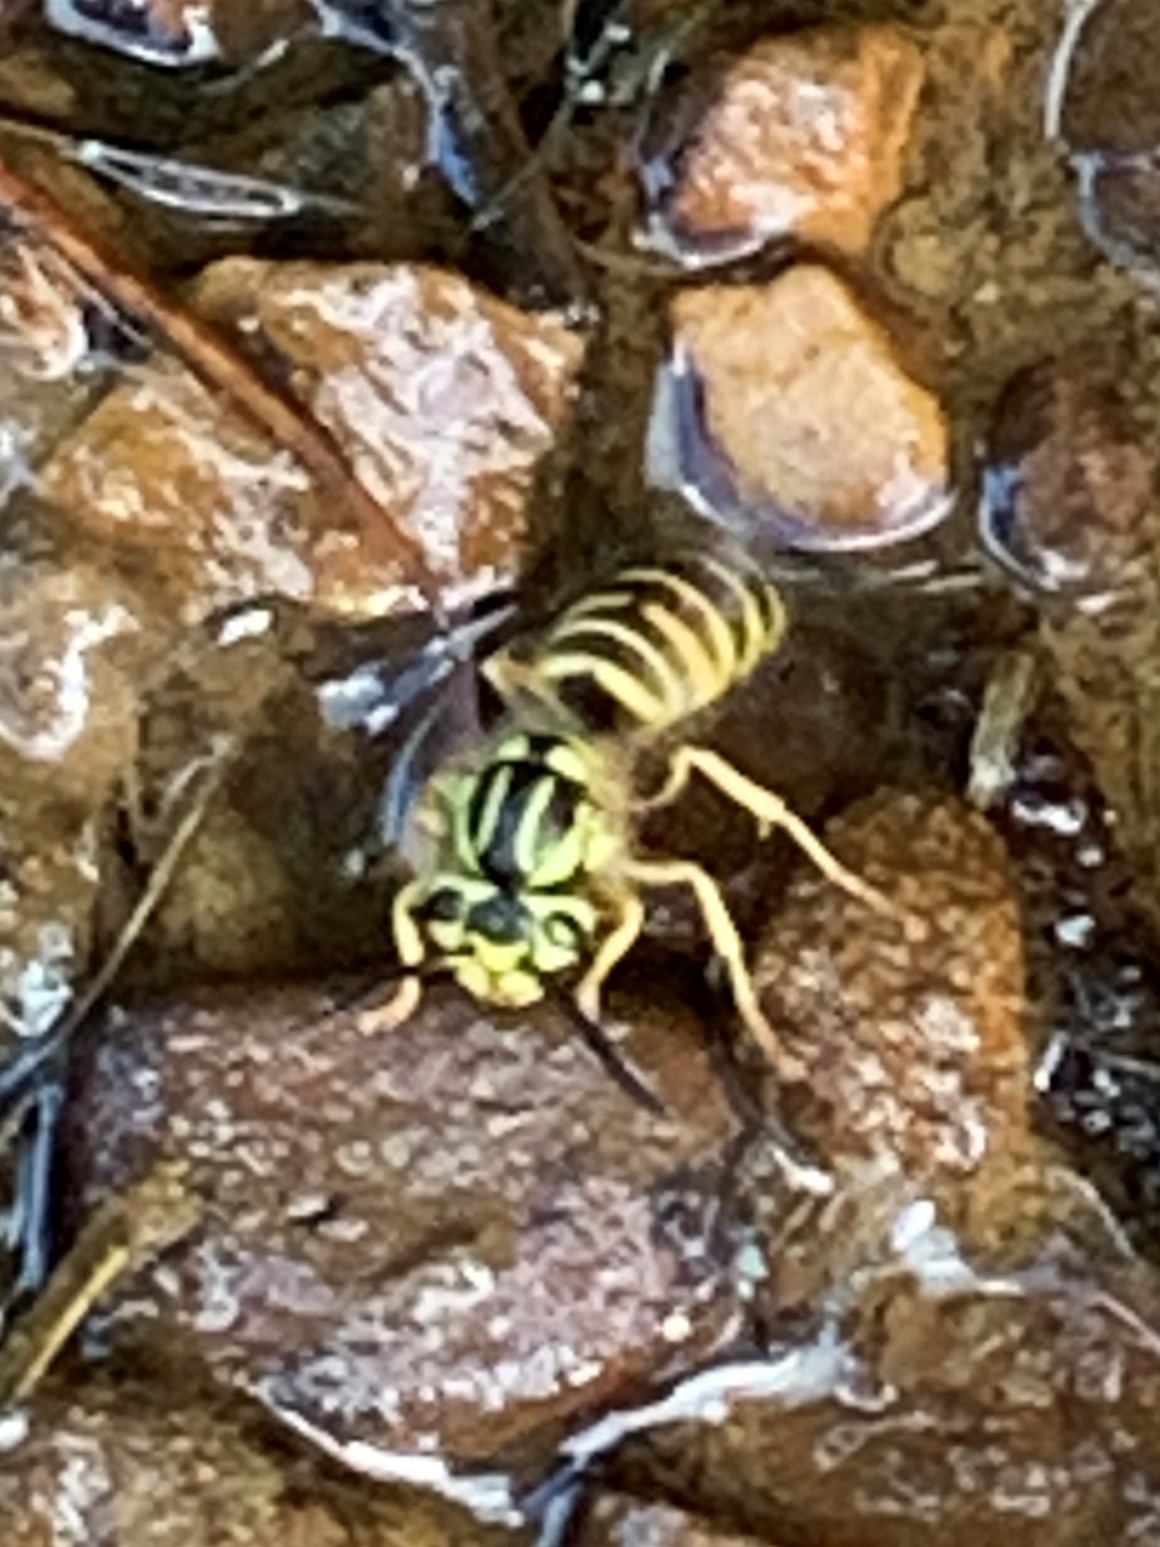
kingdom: Animalia
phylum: Arthropoda
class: Insecta
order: Hymenoptera
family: Vespidae
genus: Vespula
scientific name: Vespula squamosa
